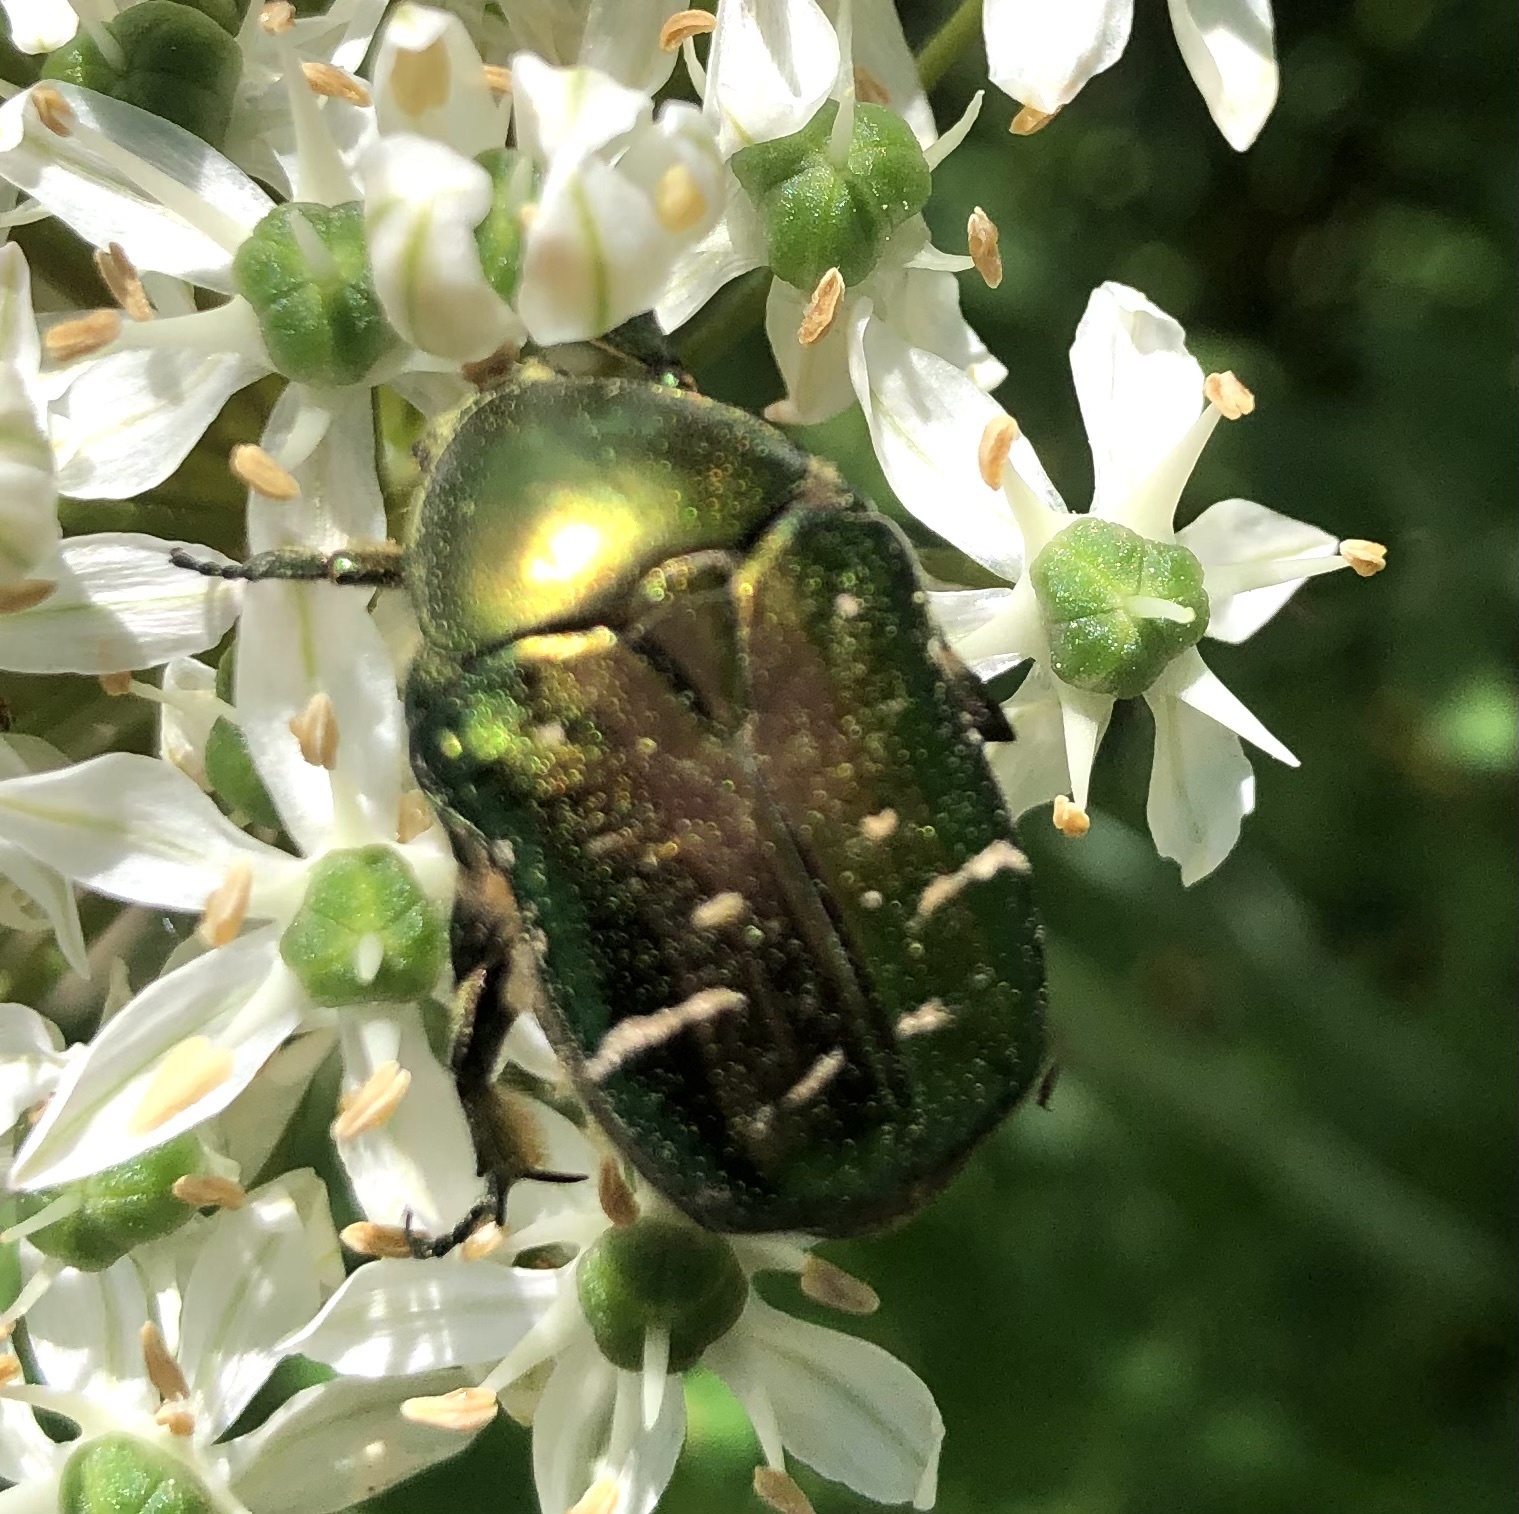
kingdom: Animalia
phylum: Arthropoda
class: Insecta
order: Coleoptera
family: Scarabaeidae
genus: Cetonia
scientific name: Cetonia aurata
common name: Rose chafer
